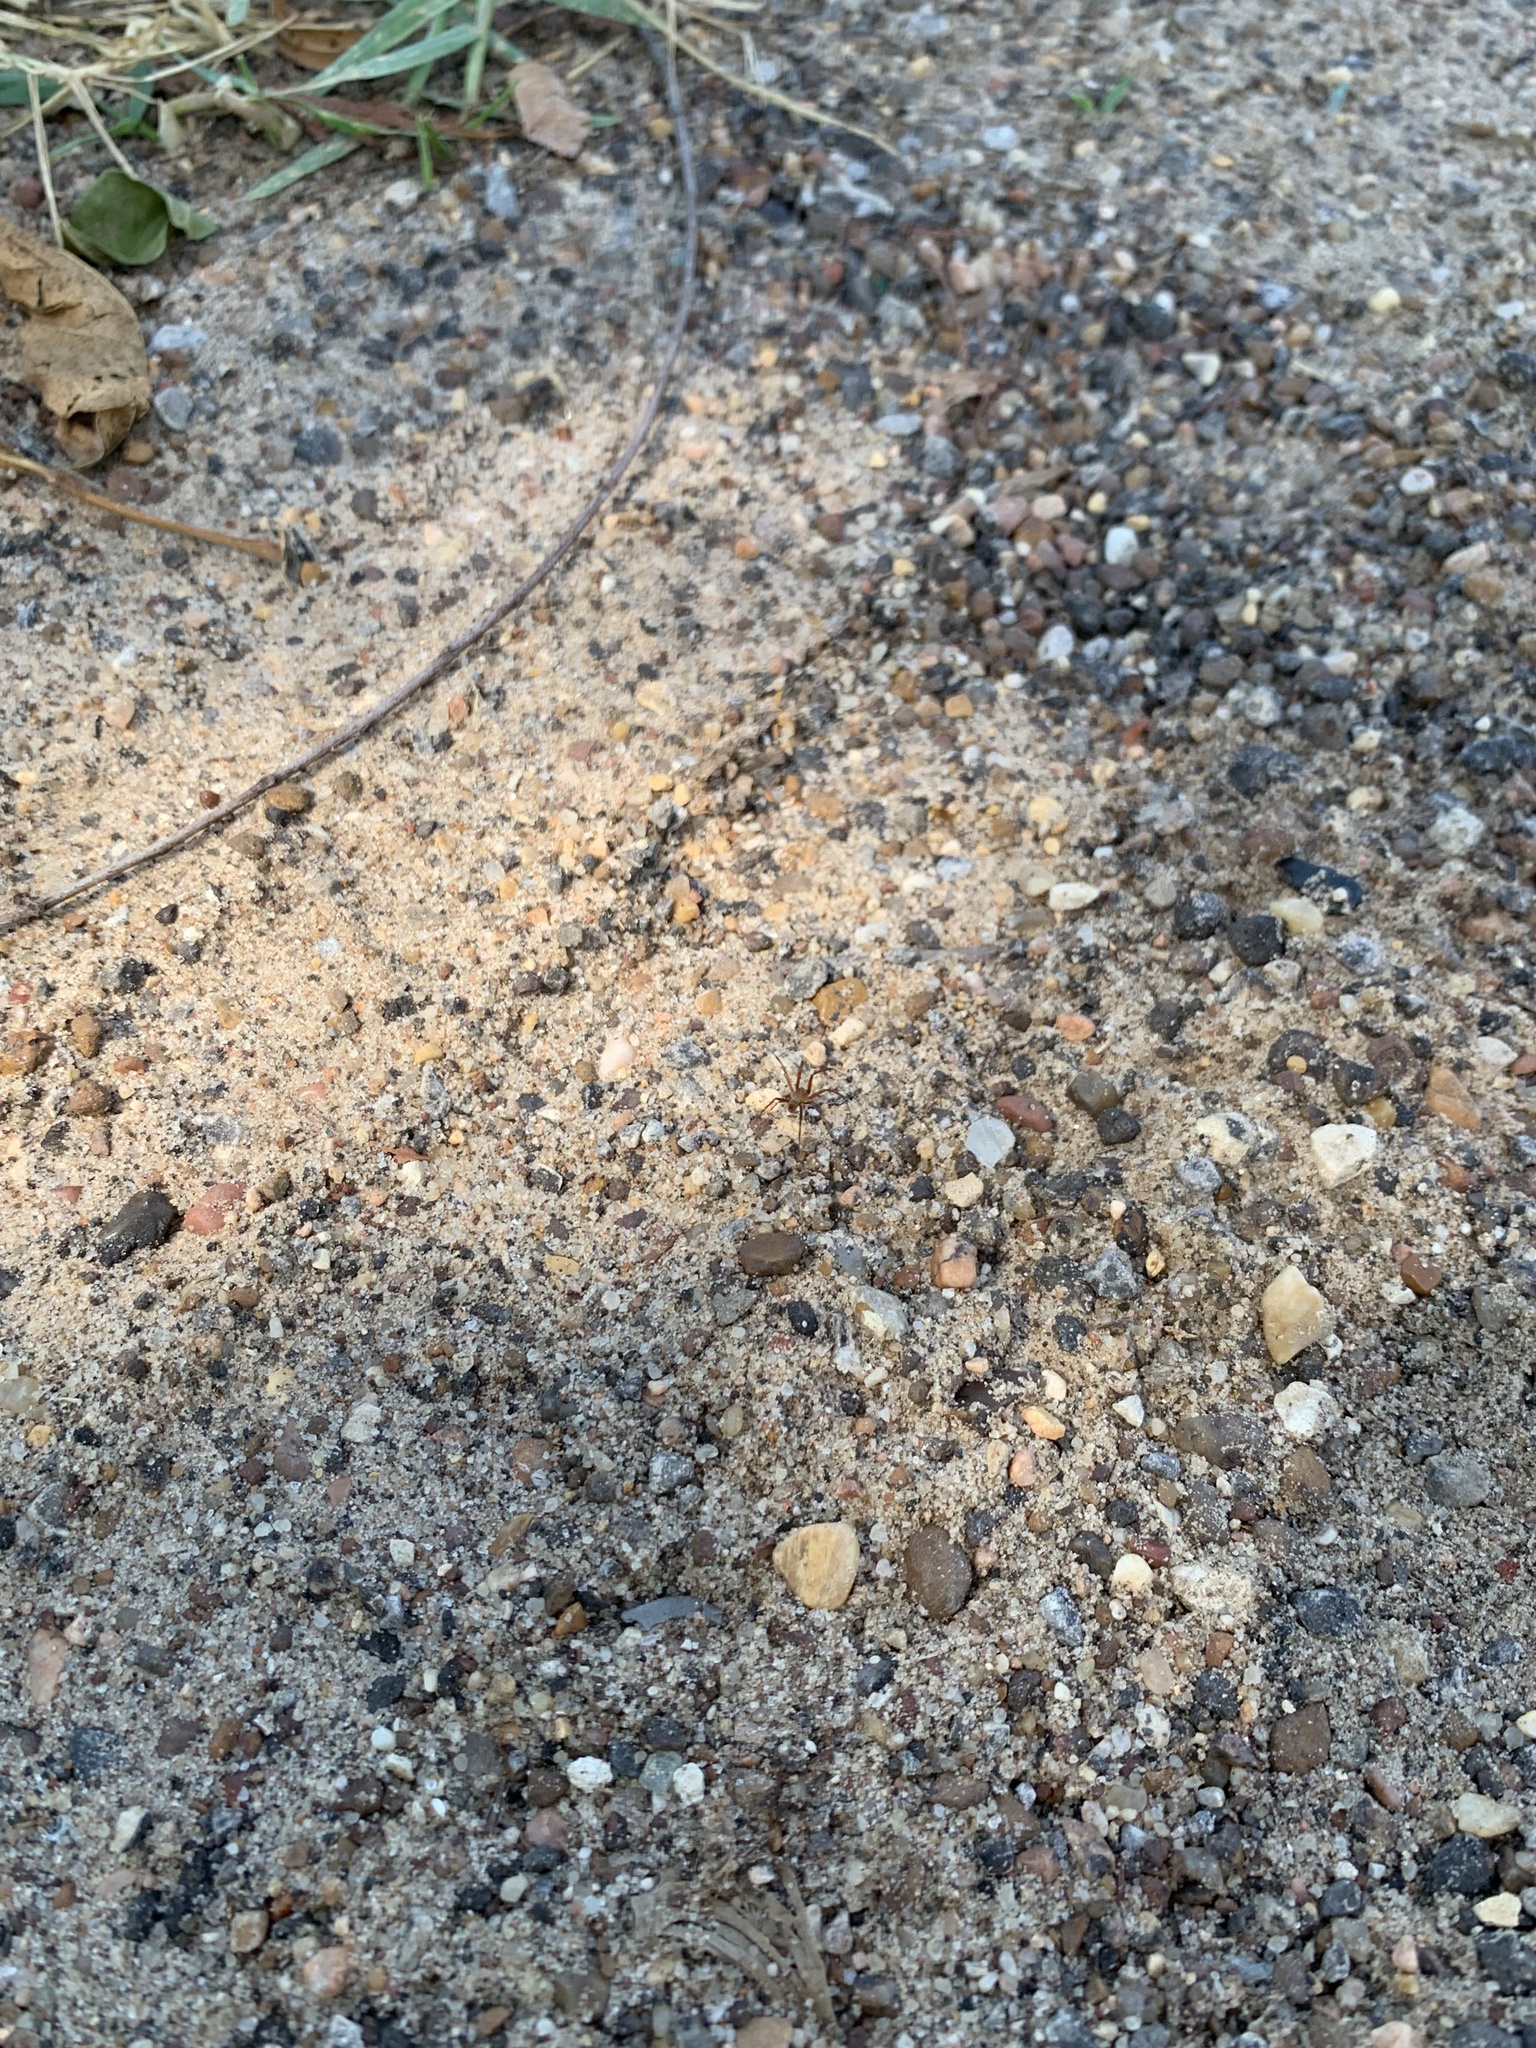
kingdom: Animalia
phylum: Arthropoda
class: Arachnida
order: Araneae
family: Araneidae
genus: Gea
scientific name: Gea heptagon
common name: Orb weavers
